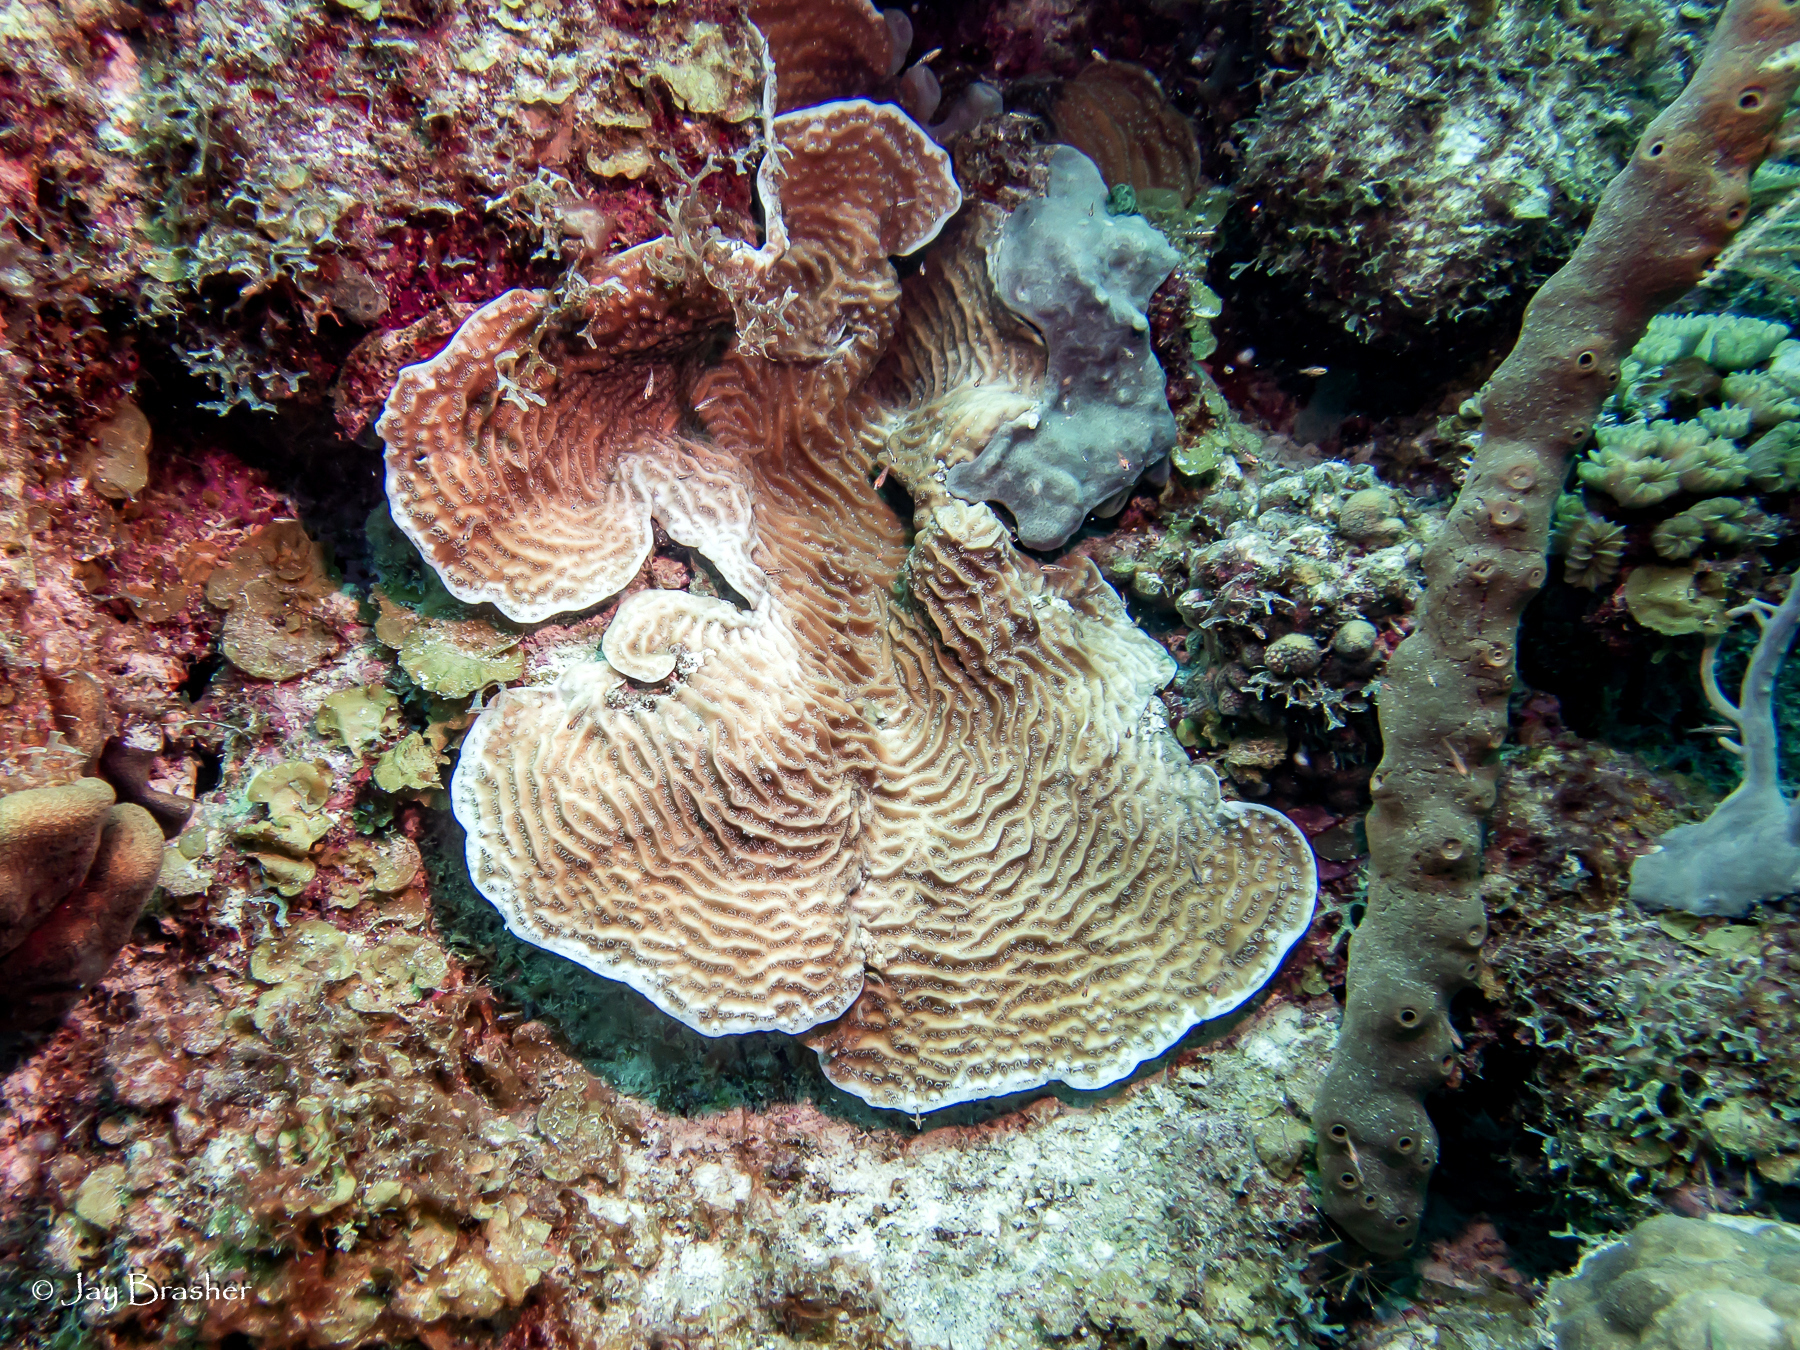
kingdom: Animalia
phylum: Cnidaria
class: Anthozoa
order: Scleractinia
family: Agariciidae
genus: Agaricia
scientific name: Agaricia lamarcki
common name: Lamarck's sheet coral
